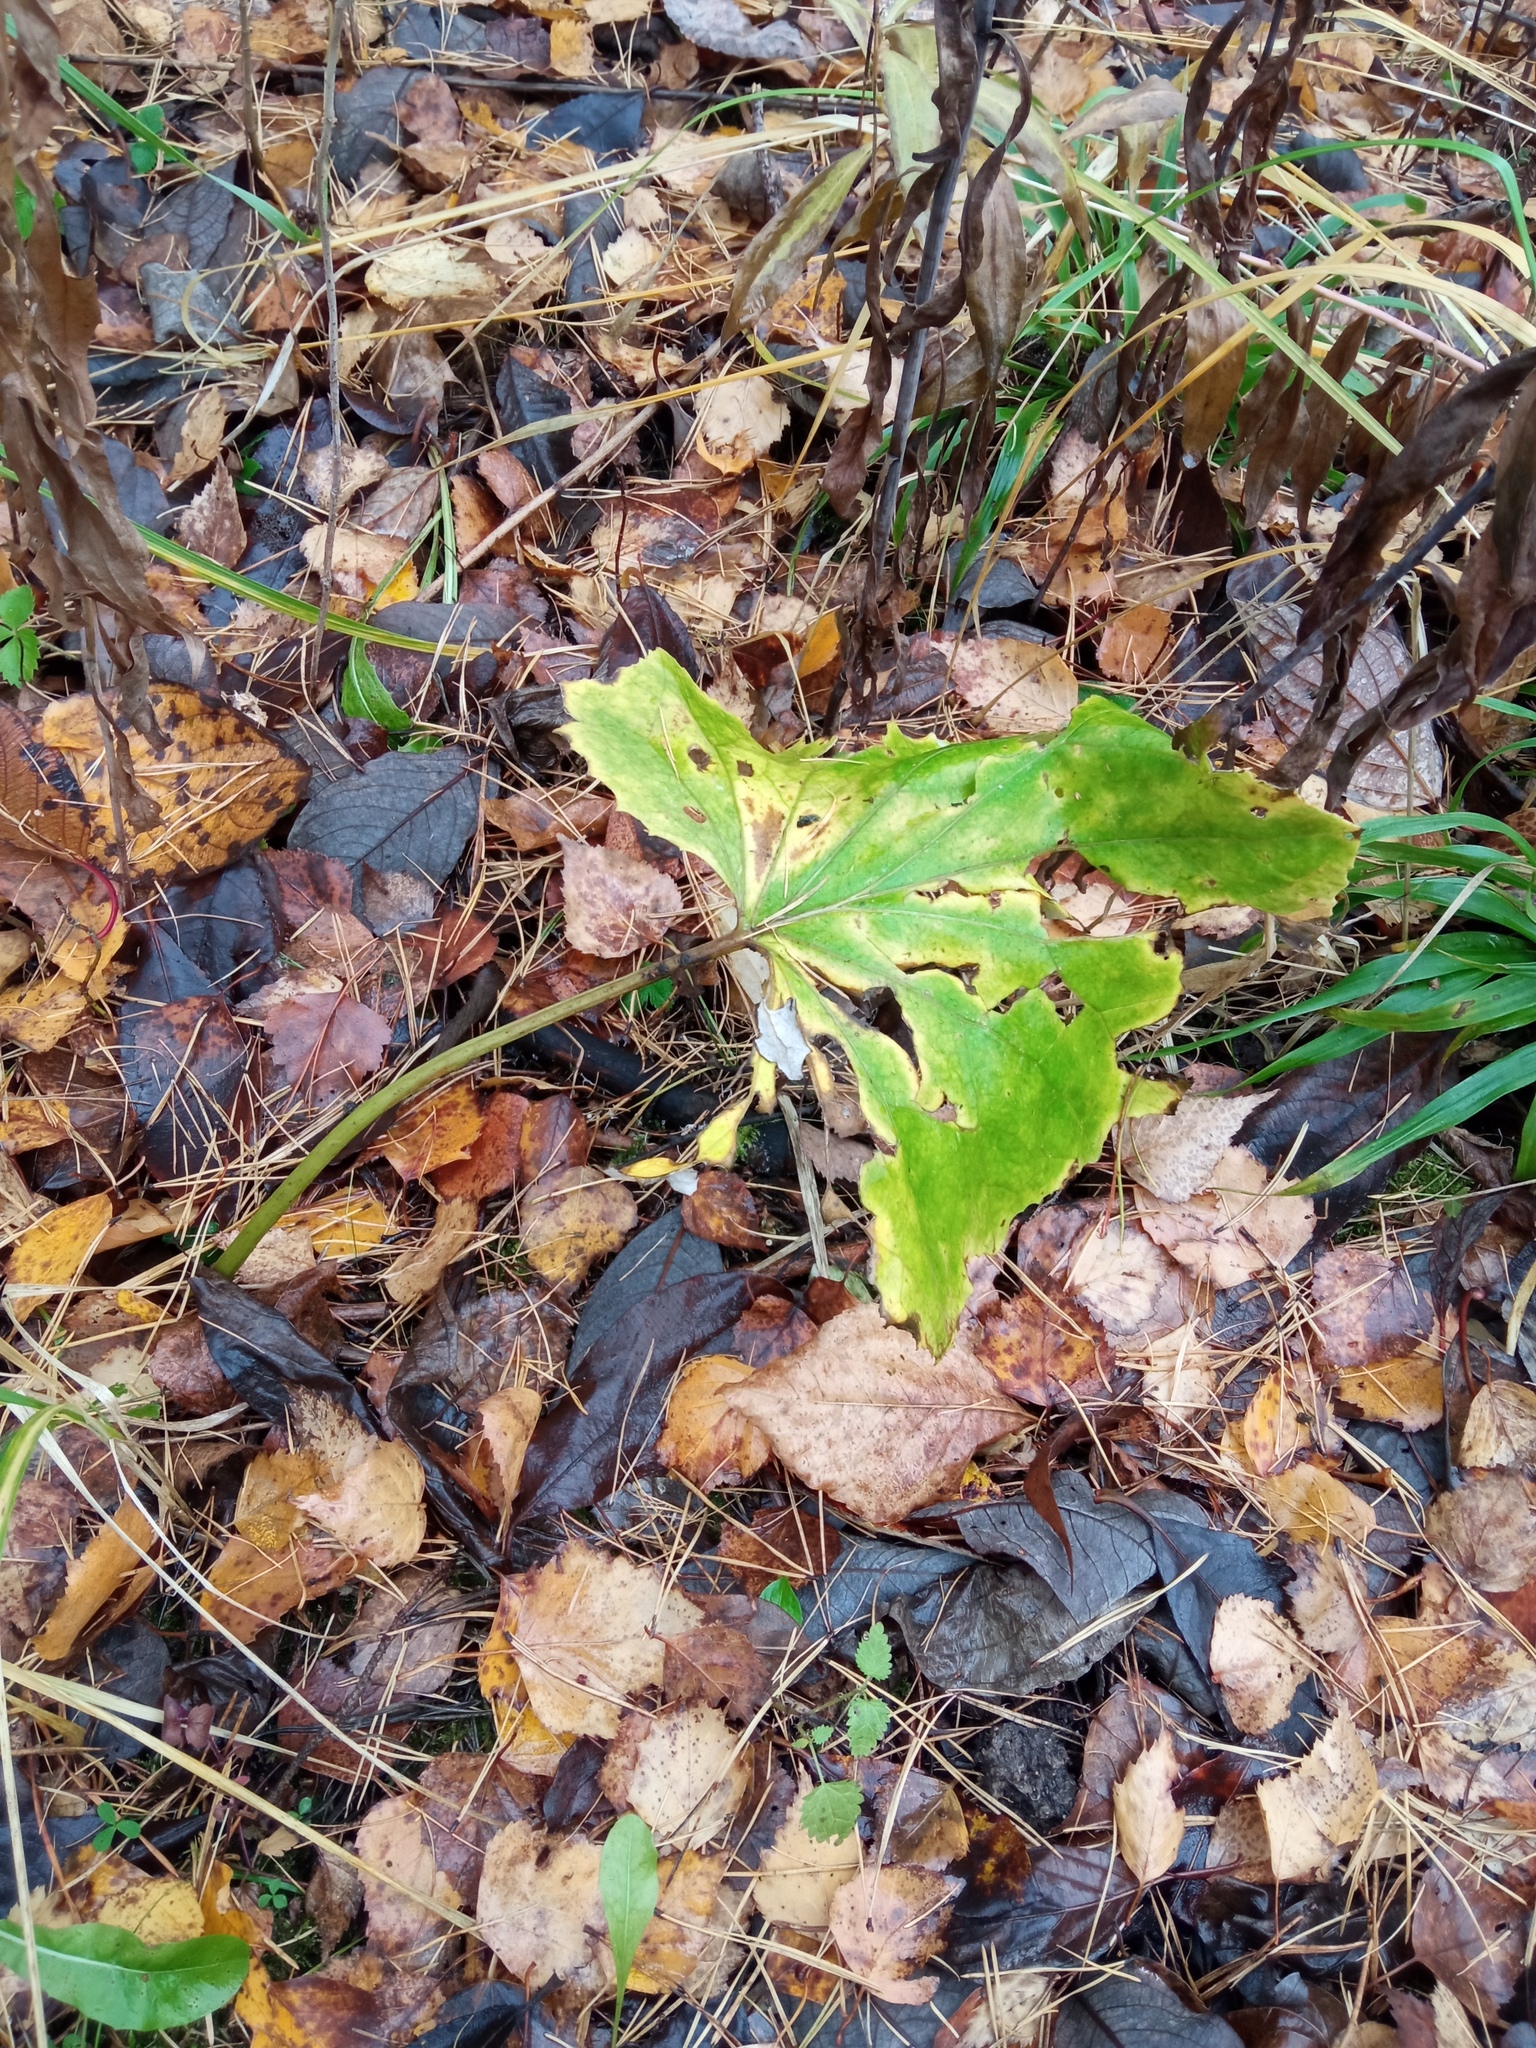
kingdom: Plantae
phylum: Tracheophyta
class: Magnoliopsida
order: Asterales
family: Asteraceae
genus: Tussilago
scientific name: Tussilago farfara
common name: Coltsfoot
